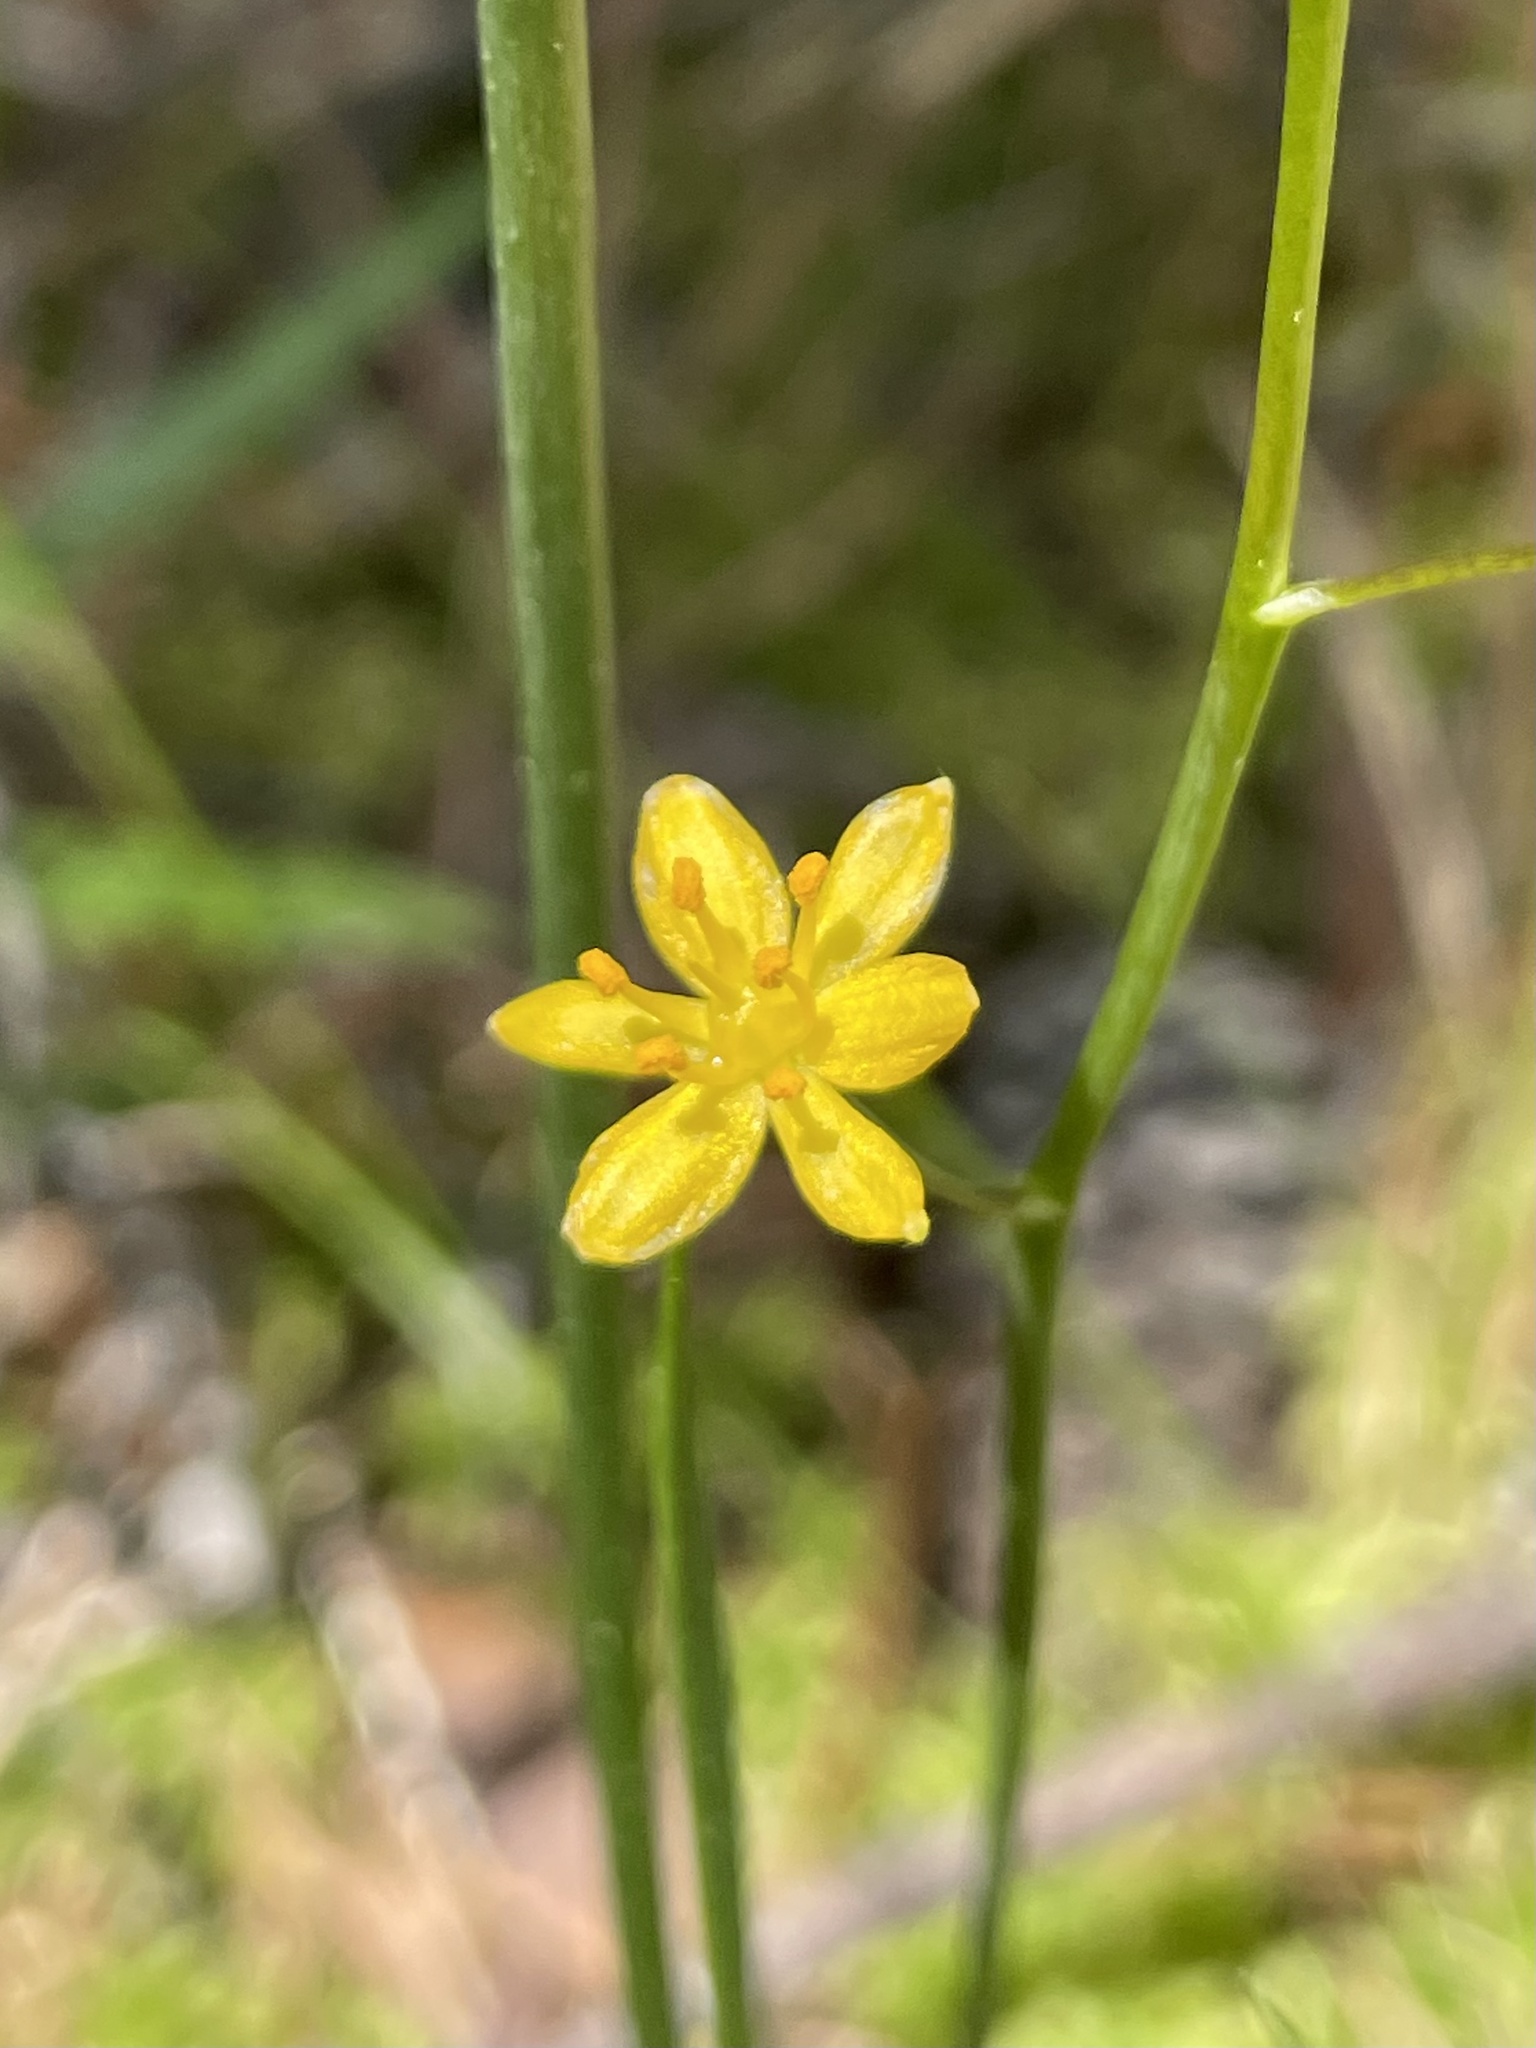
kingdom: Plantae
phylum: Tracheophyta
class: Liliopsida
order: Asparagales
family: Asparagaceae
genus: Schoenolirion
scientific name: Schoenolirion croceum
